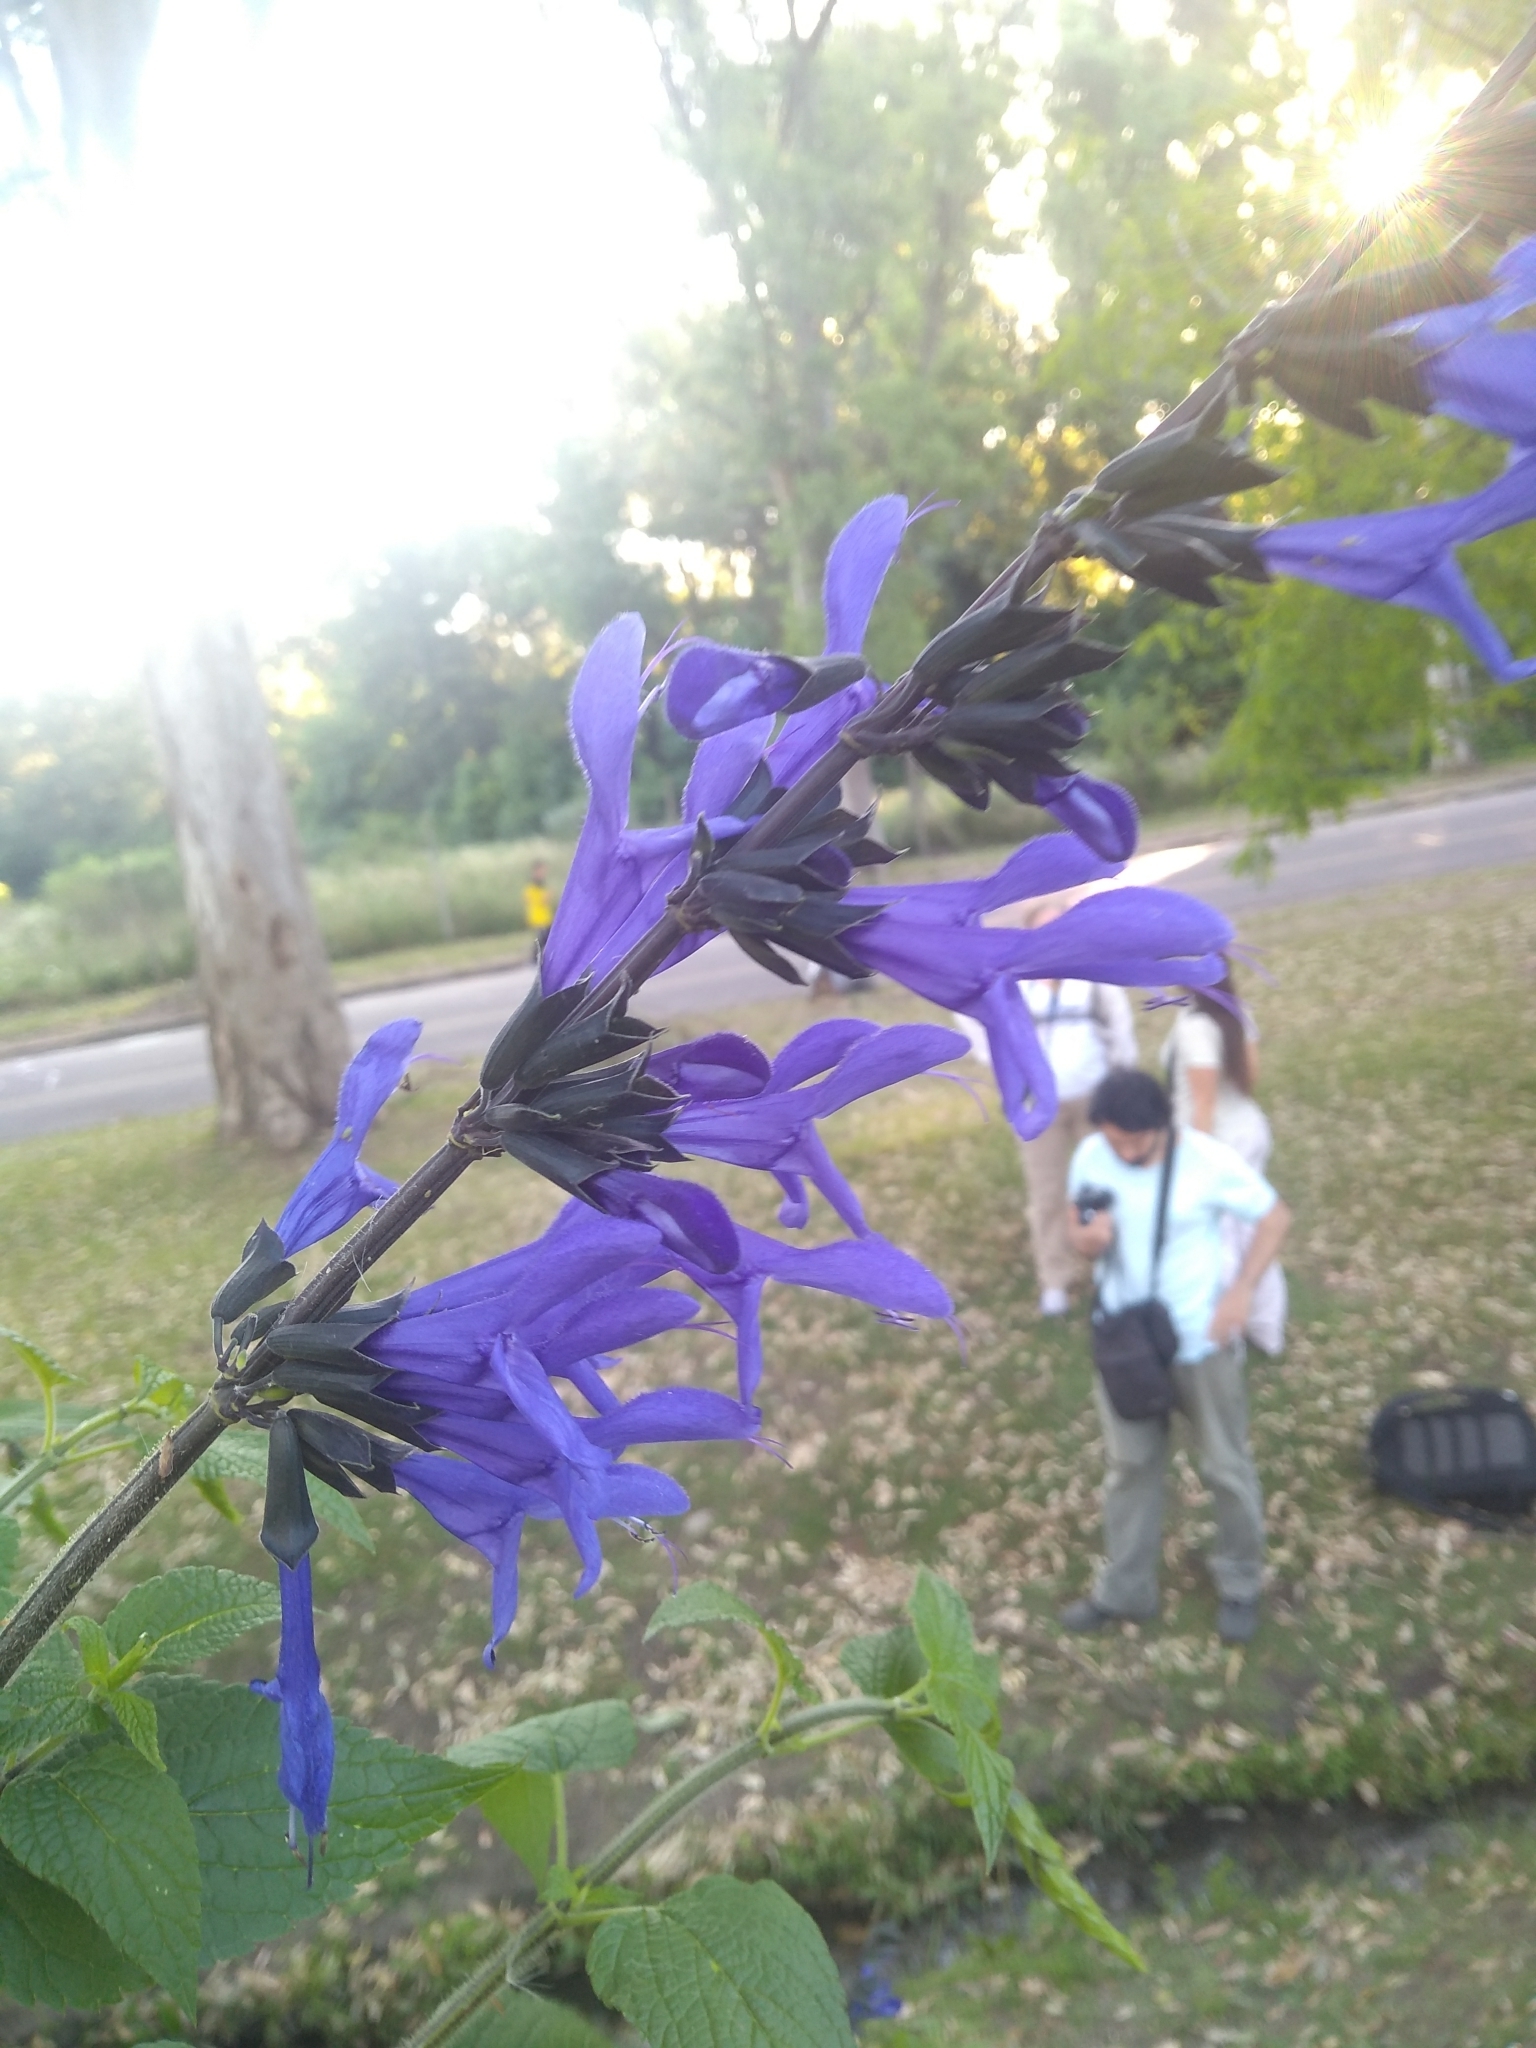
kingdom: Plantae
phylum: Tracheophyta
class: Magnoliopsida
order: Lamiales
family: Lamiaceae
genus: Salvia
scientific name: Salvia guaranitica
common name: Anise-scented sage
